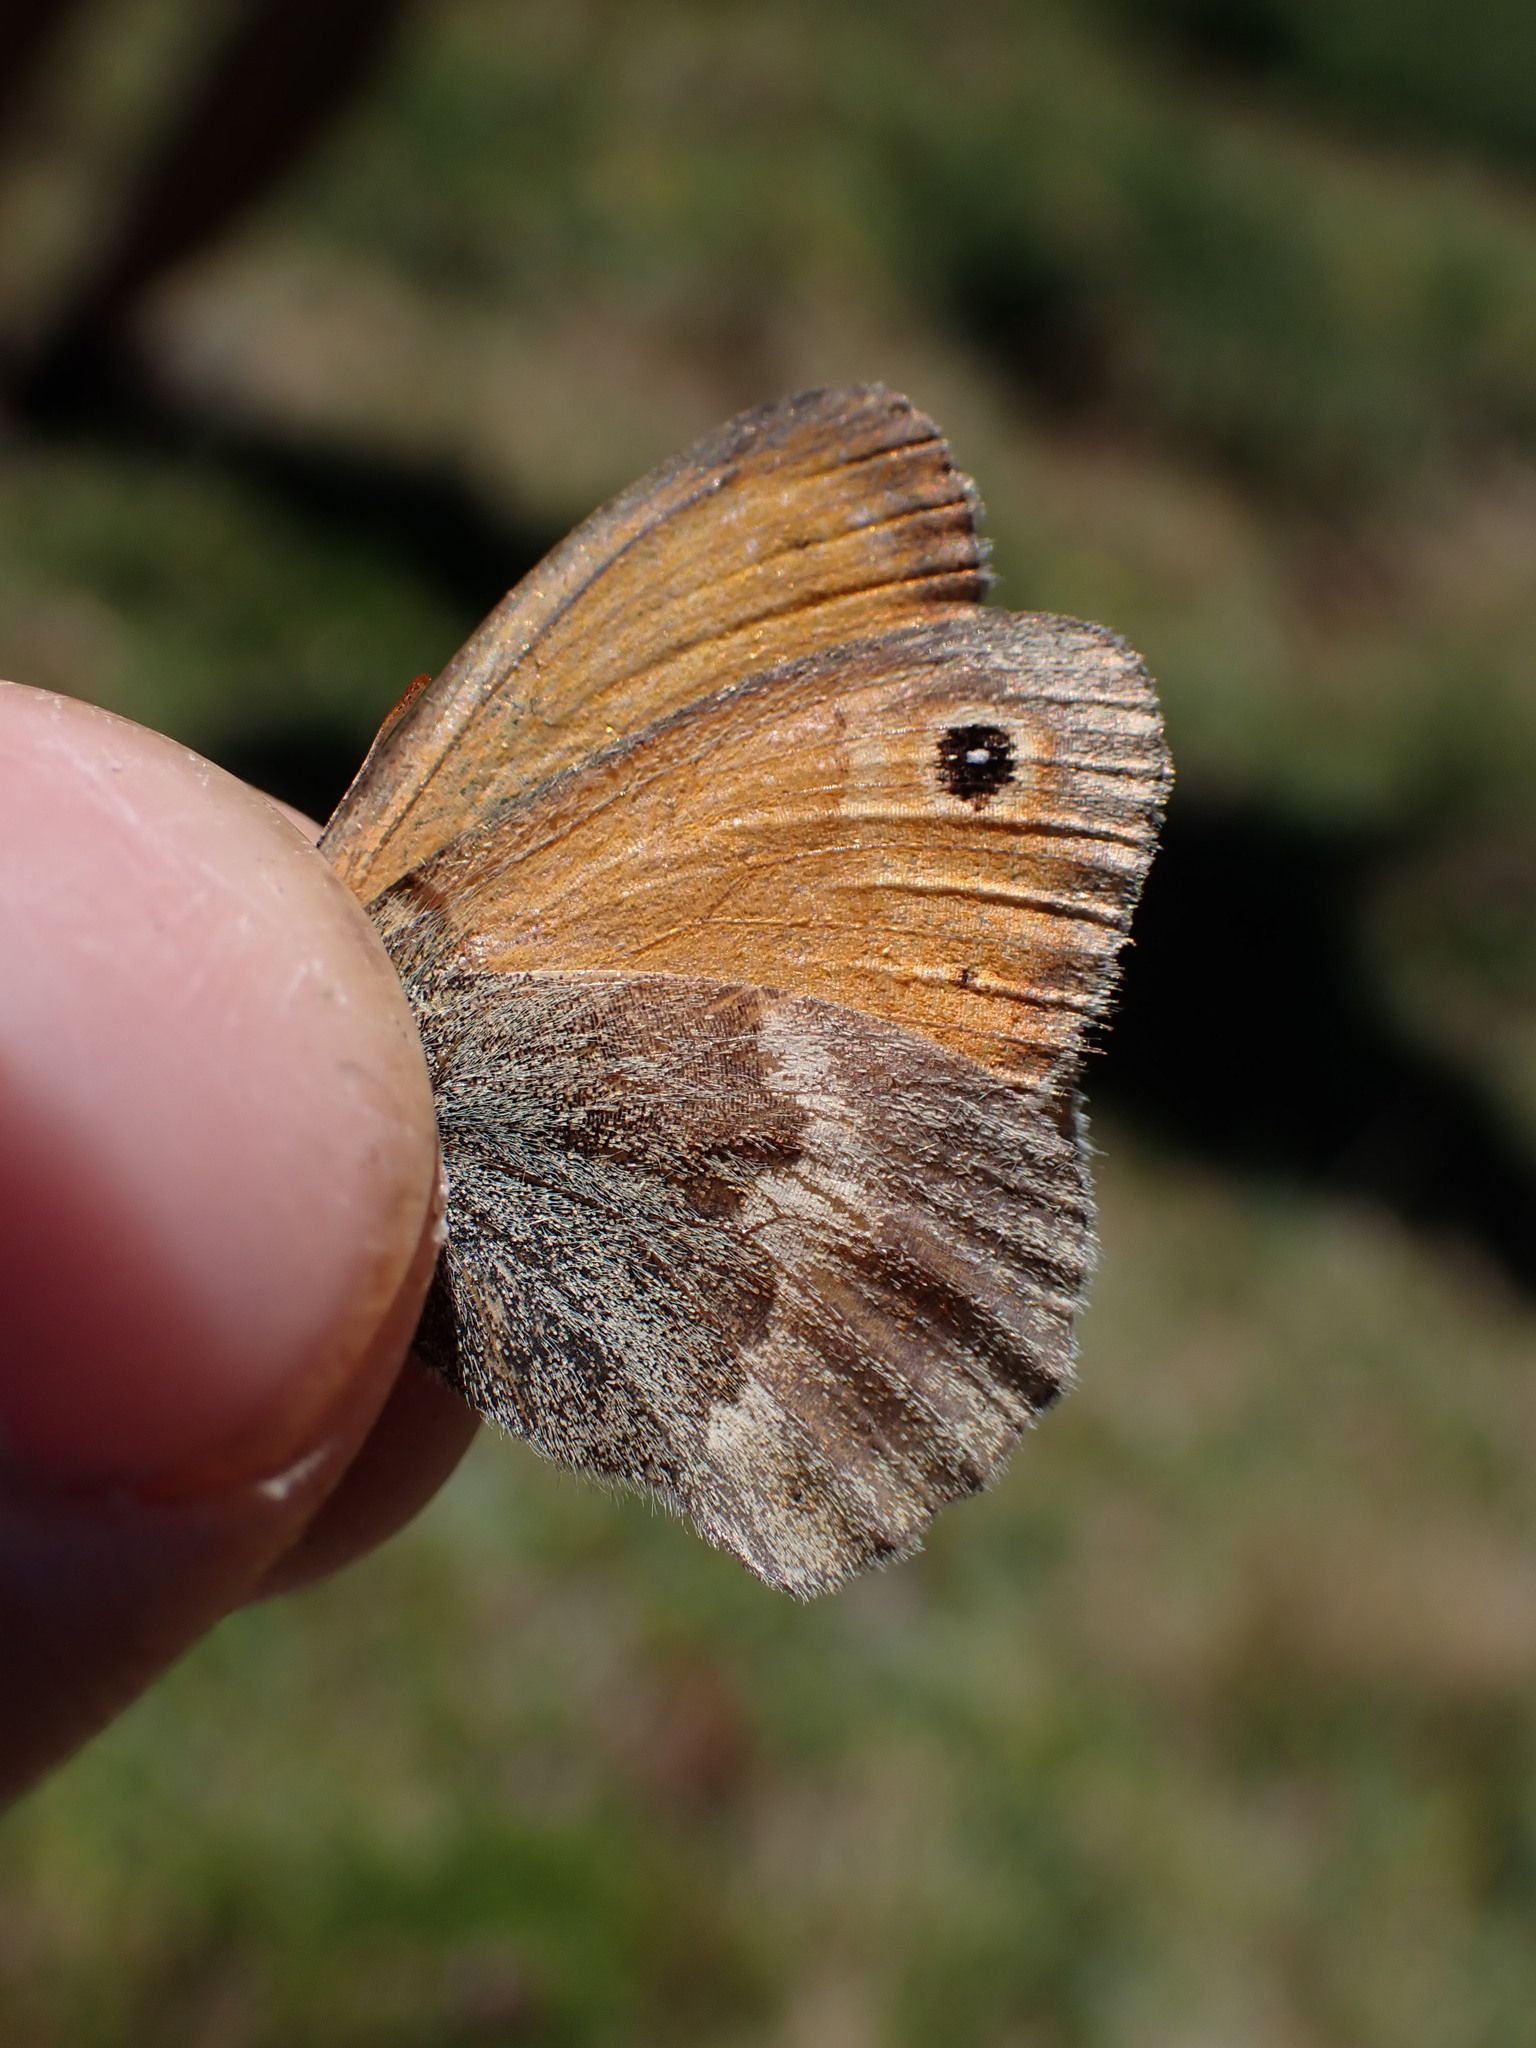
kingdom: Animalia
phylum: Arthropoda
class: Insecta
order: Lepidoptera
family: Nymphalidae
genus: Coenonympha
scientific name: Coenonympha pamphilus
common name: Small heath
